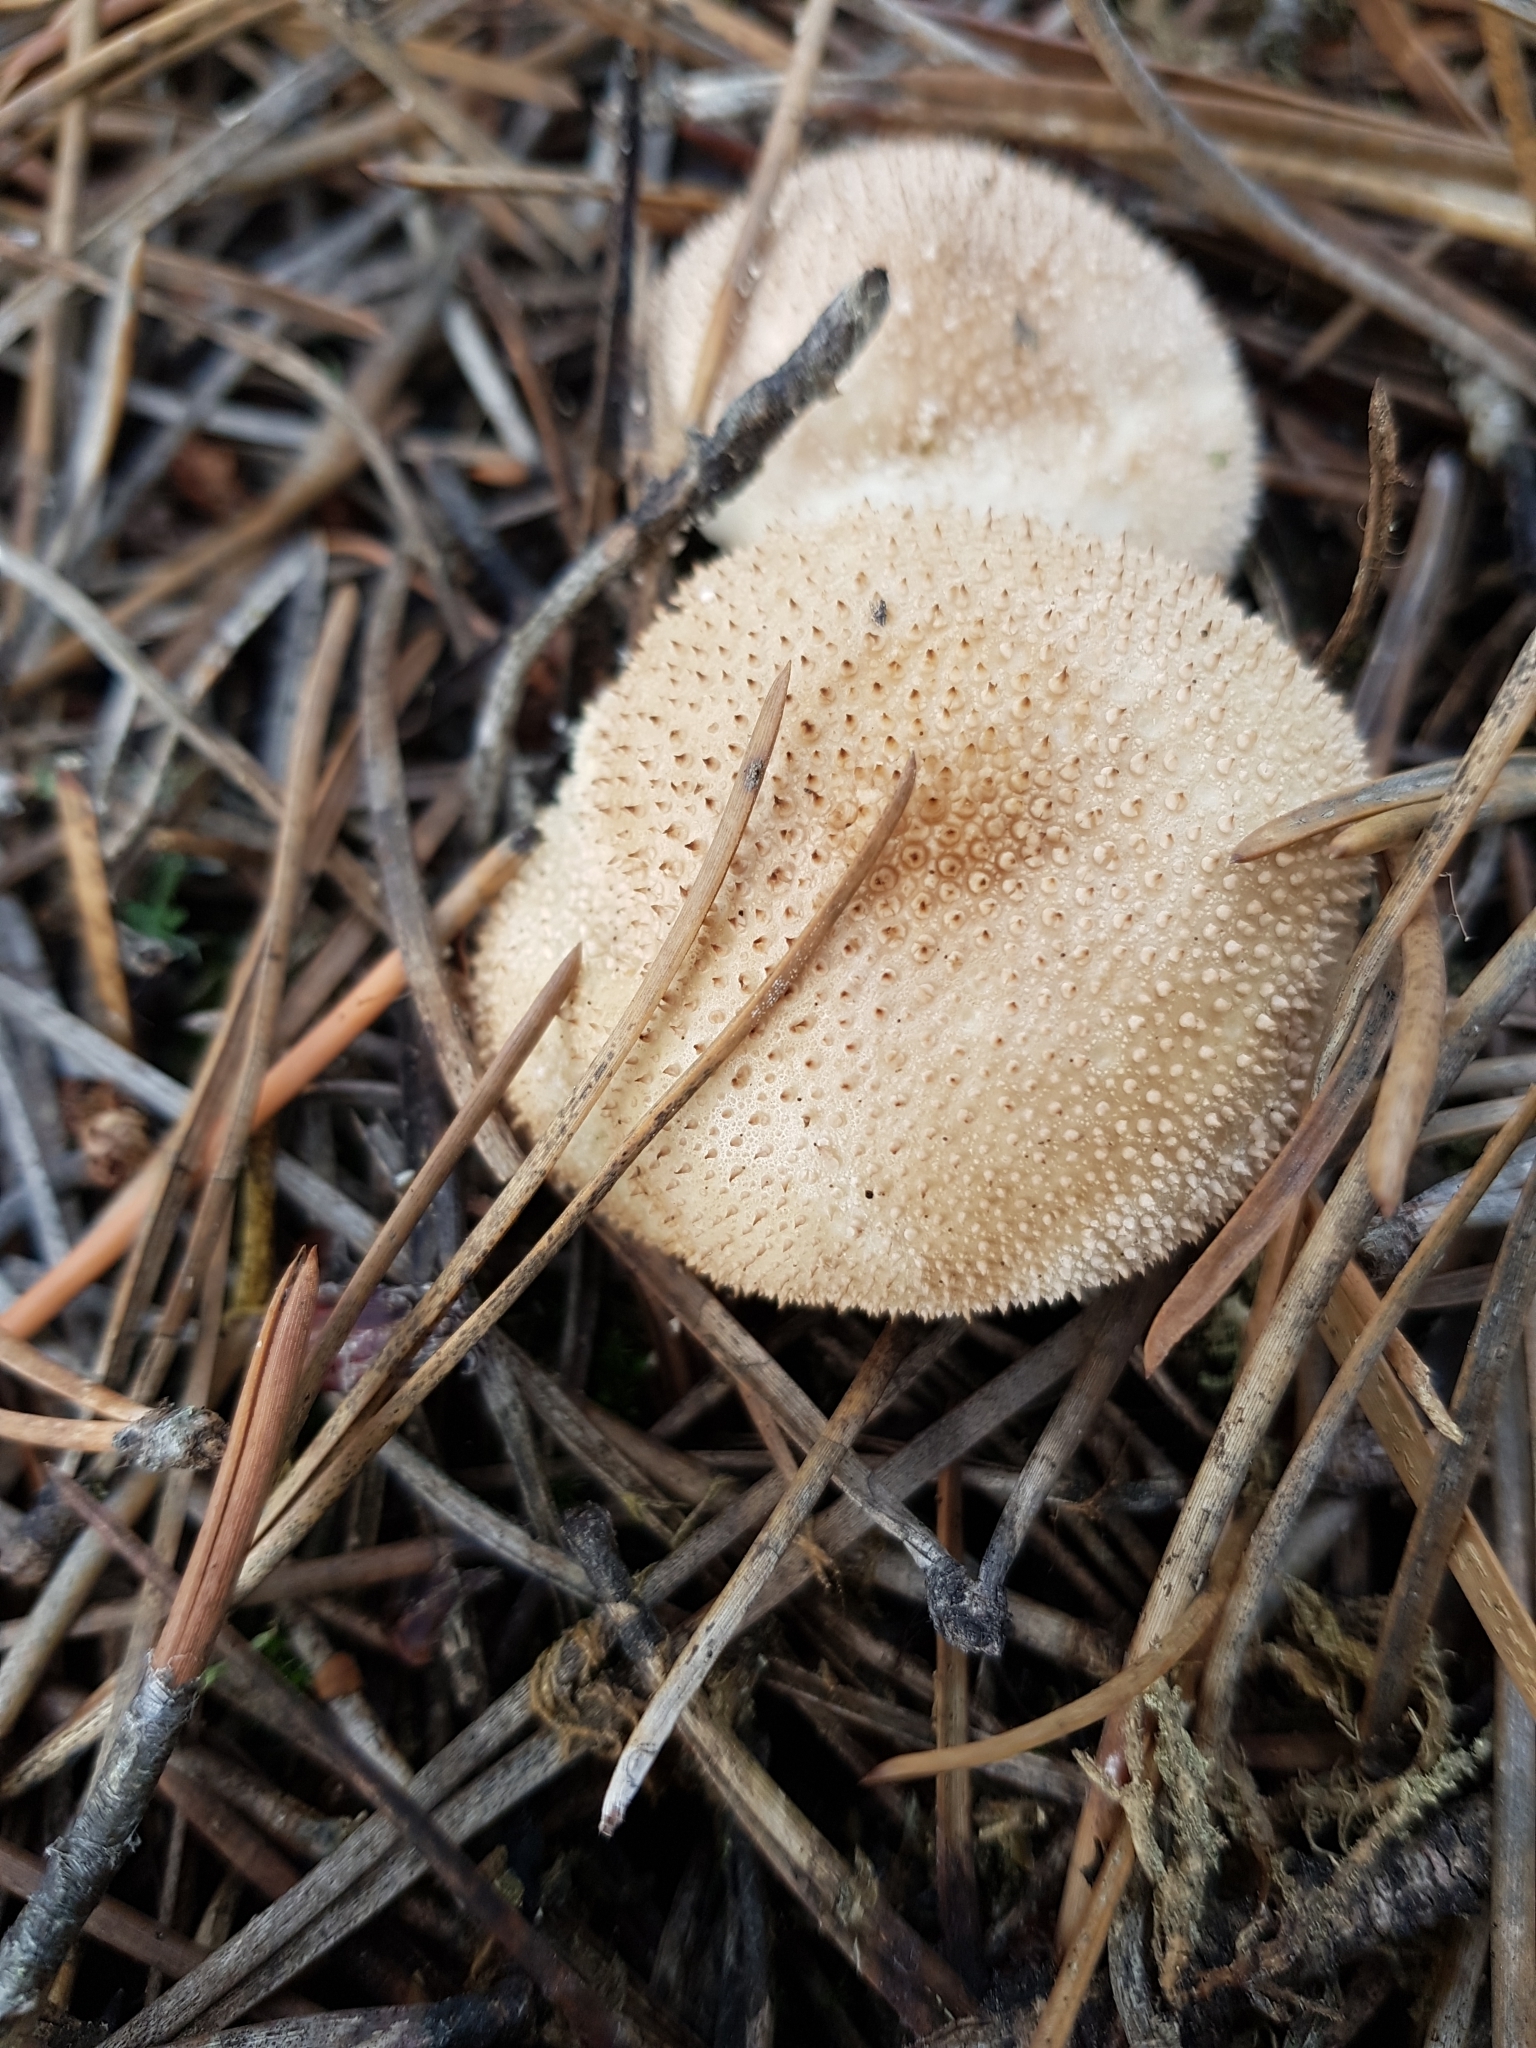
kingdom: Fungi
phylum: Basidiomycota
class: Agaricomycetes
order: Agaricales
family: Lycoperdaceae
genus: Lycoperdon
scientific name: Lycoperdon perlatum
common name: Common puffball
